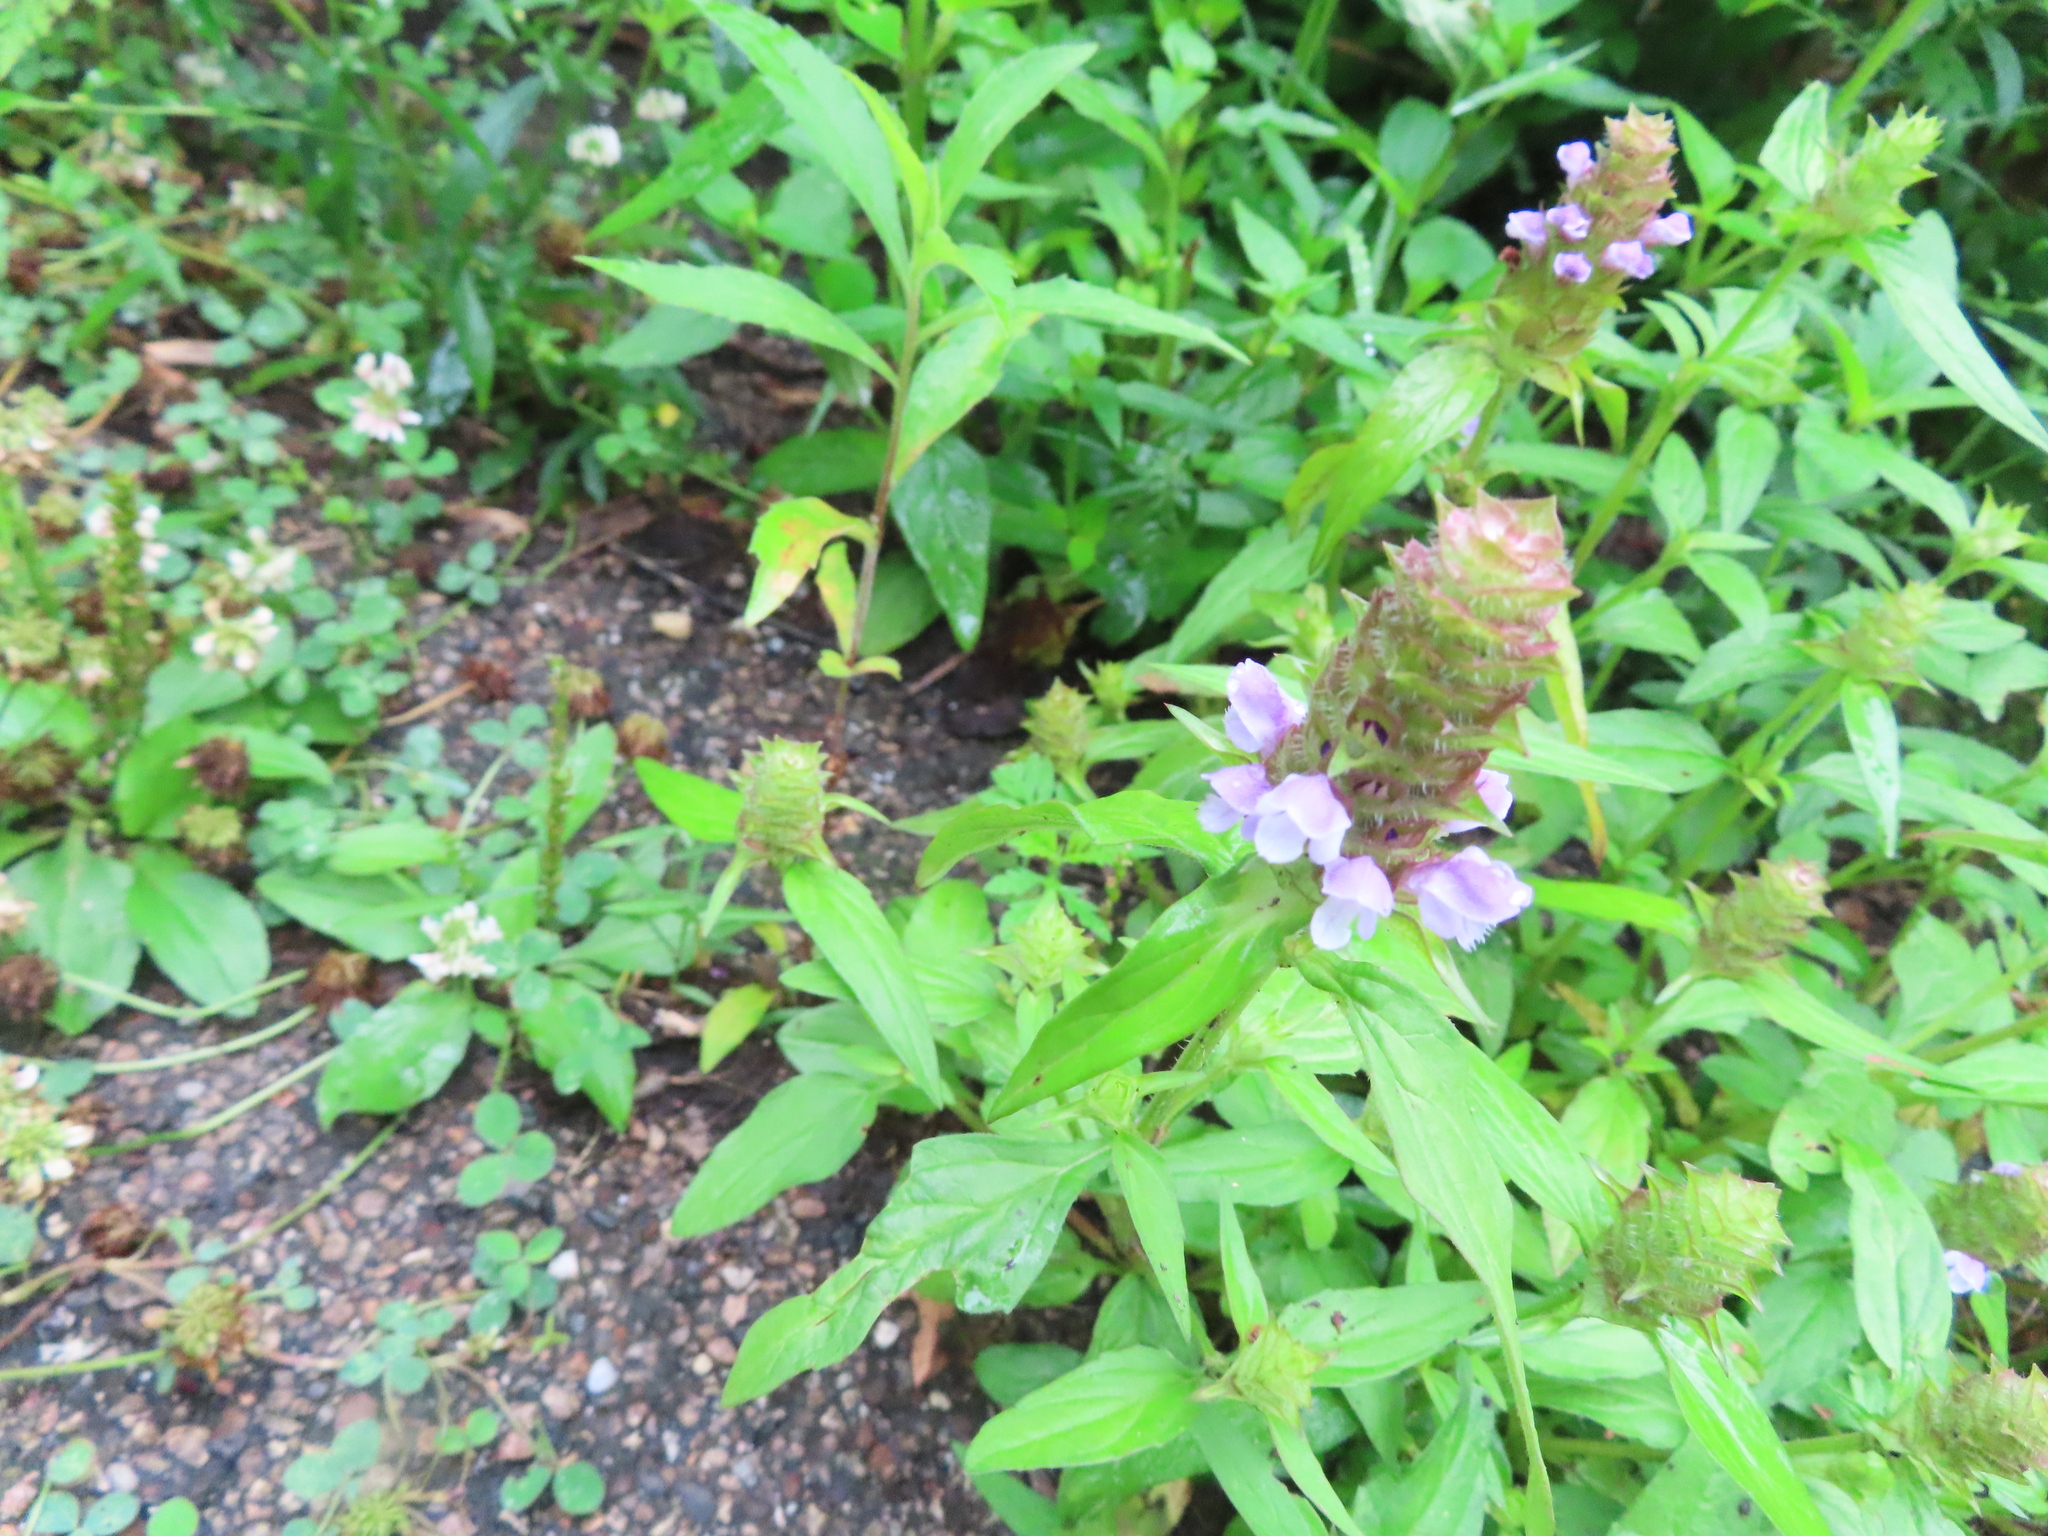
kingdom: Plantae
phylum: Tracheophyta
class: Magnoliopsida
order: Lamiales
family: Lamiaceae
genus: Prunella
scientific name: Prunella vulgaris
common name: Heal-all
